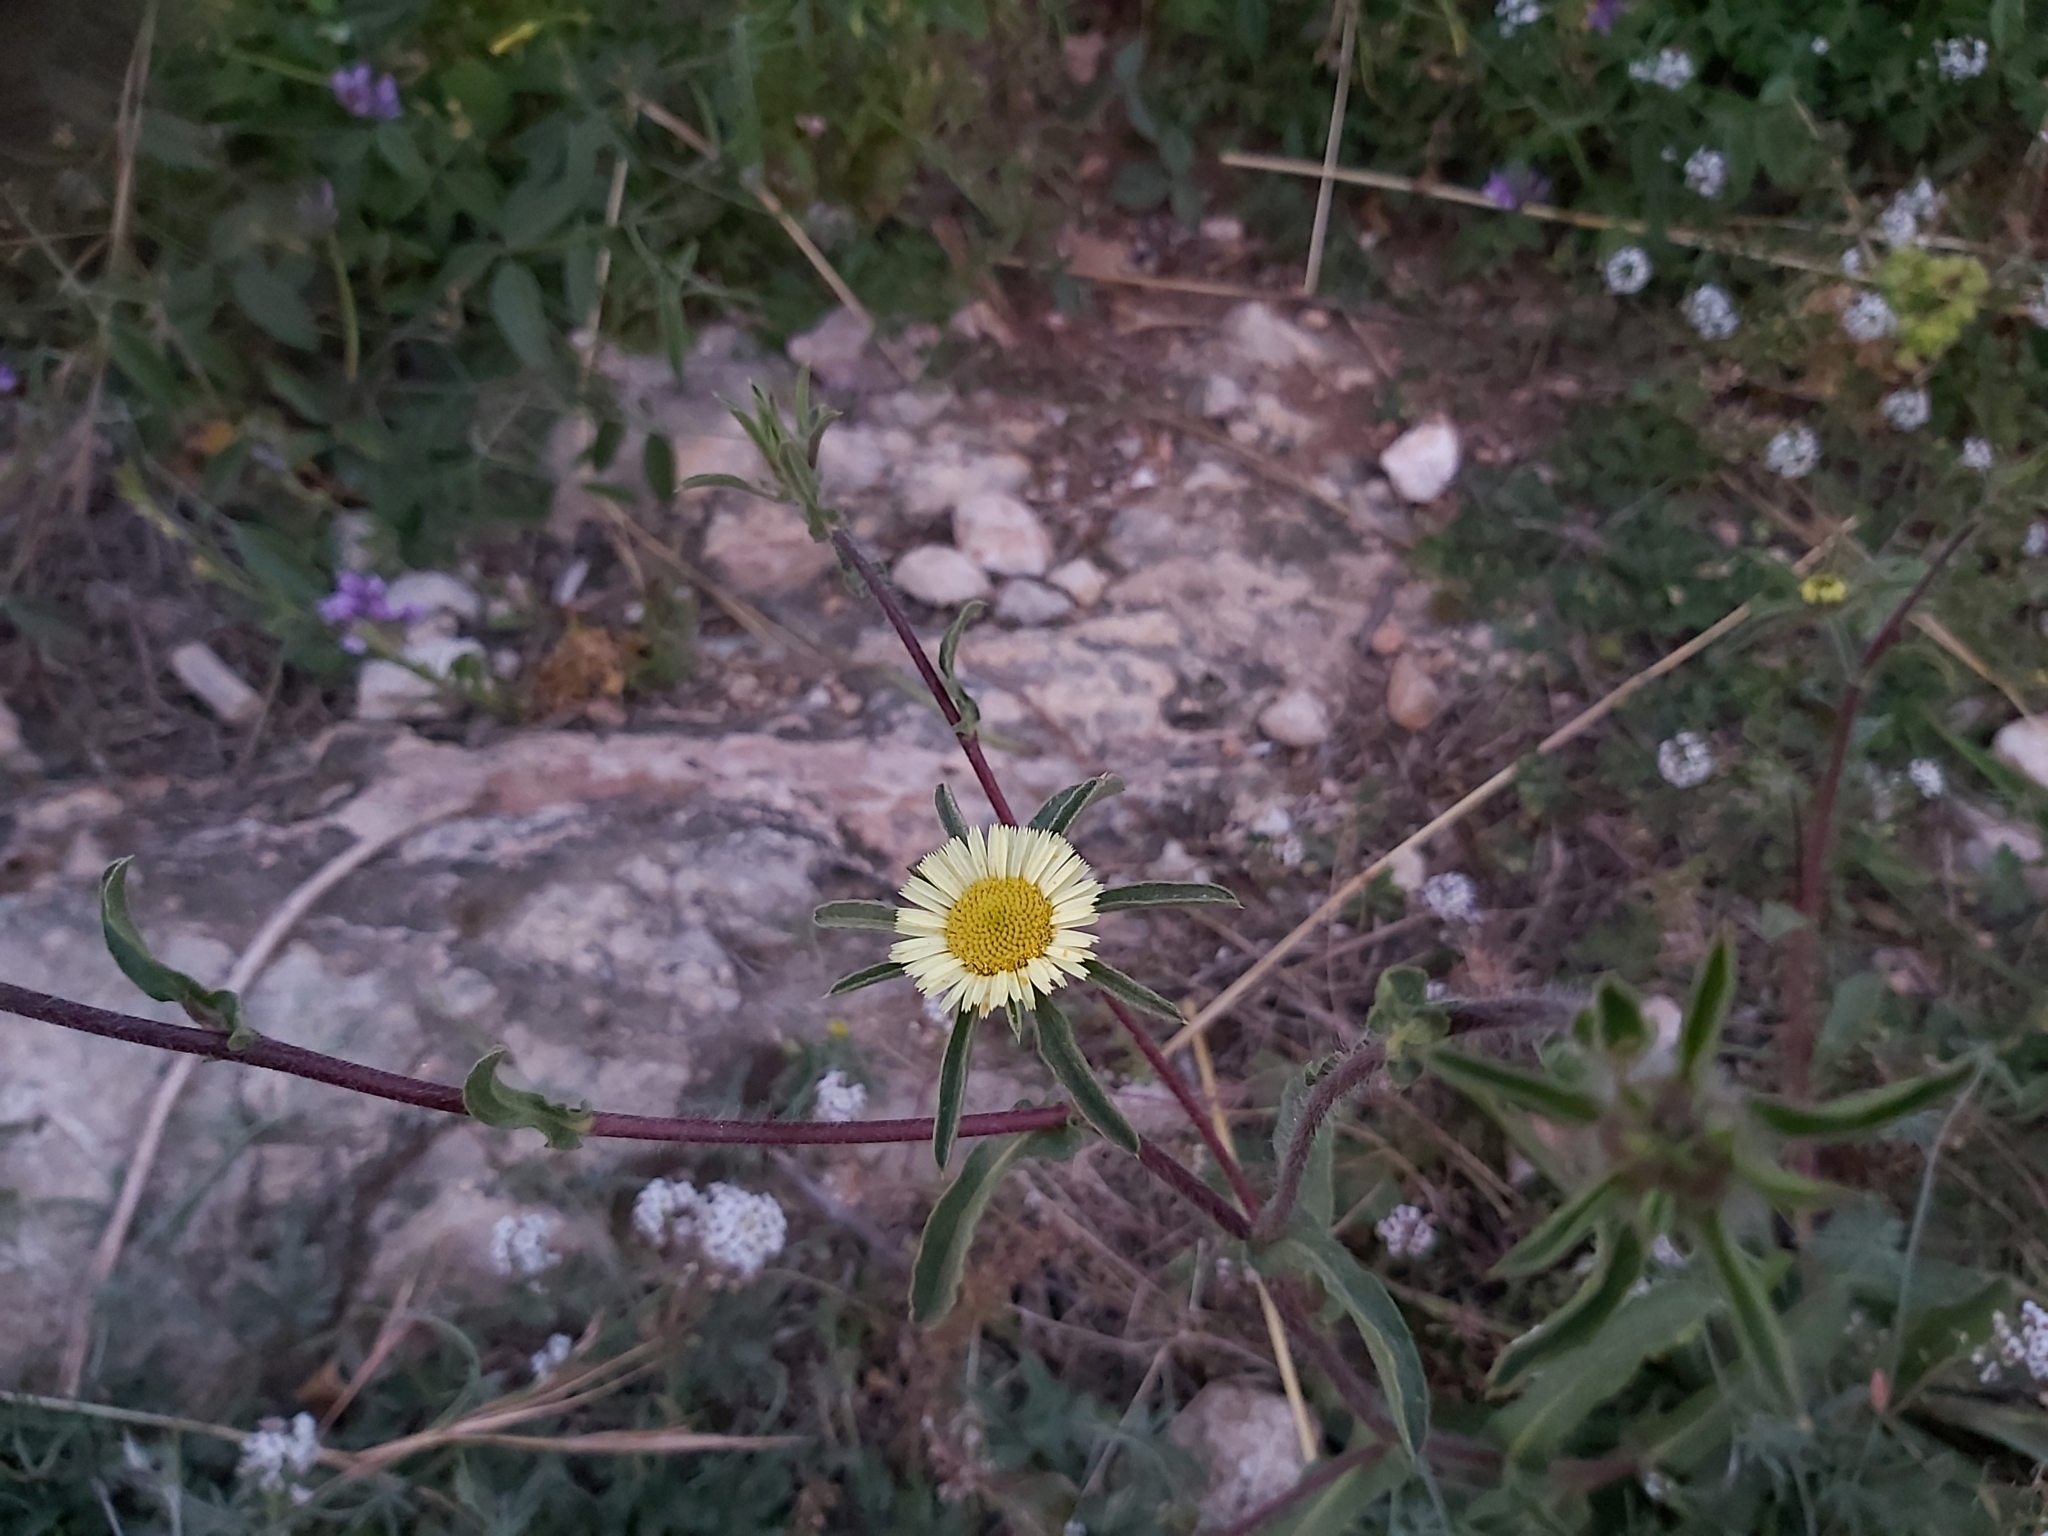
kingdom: Plantae
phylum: Tracheophyta
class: Magnoliopsida
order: Asterales
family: Asteraceae
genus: Pallenis
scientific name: Pallenis spinosa
